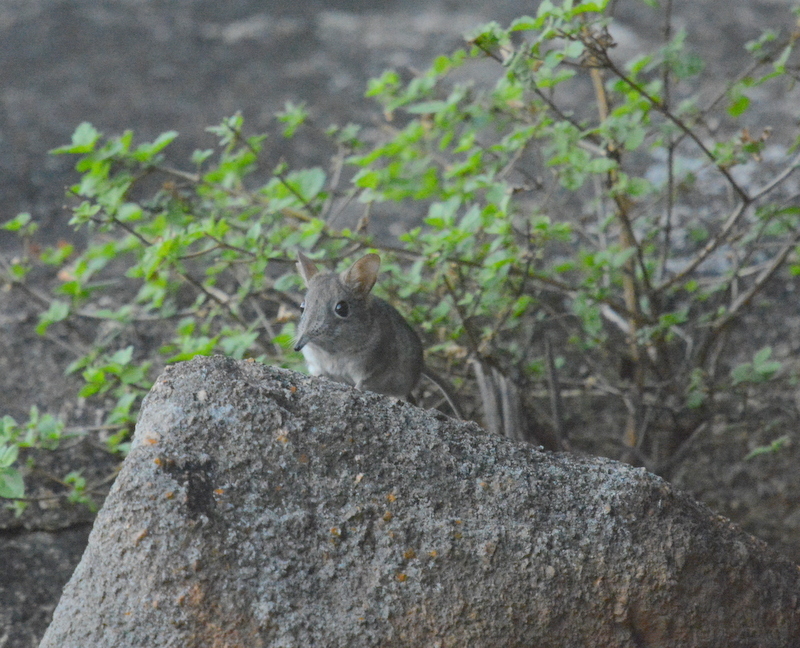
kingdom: Animalia
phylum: Chordata
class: Mammalia
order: Macroscelidea
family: Macroscelididae
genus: Elephantulus
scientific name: Elephantulus myurus
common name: Eastern rock elephant shrew
